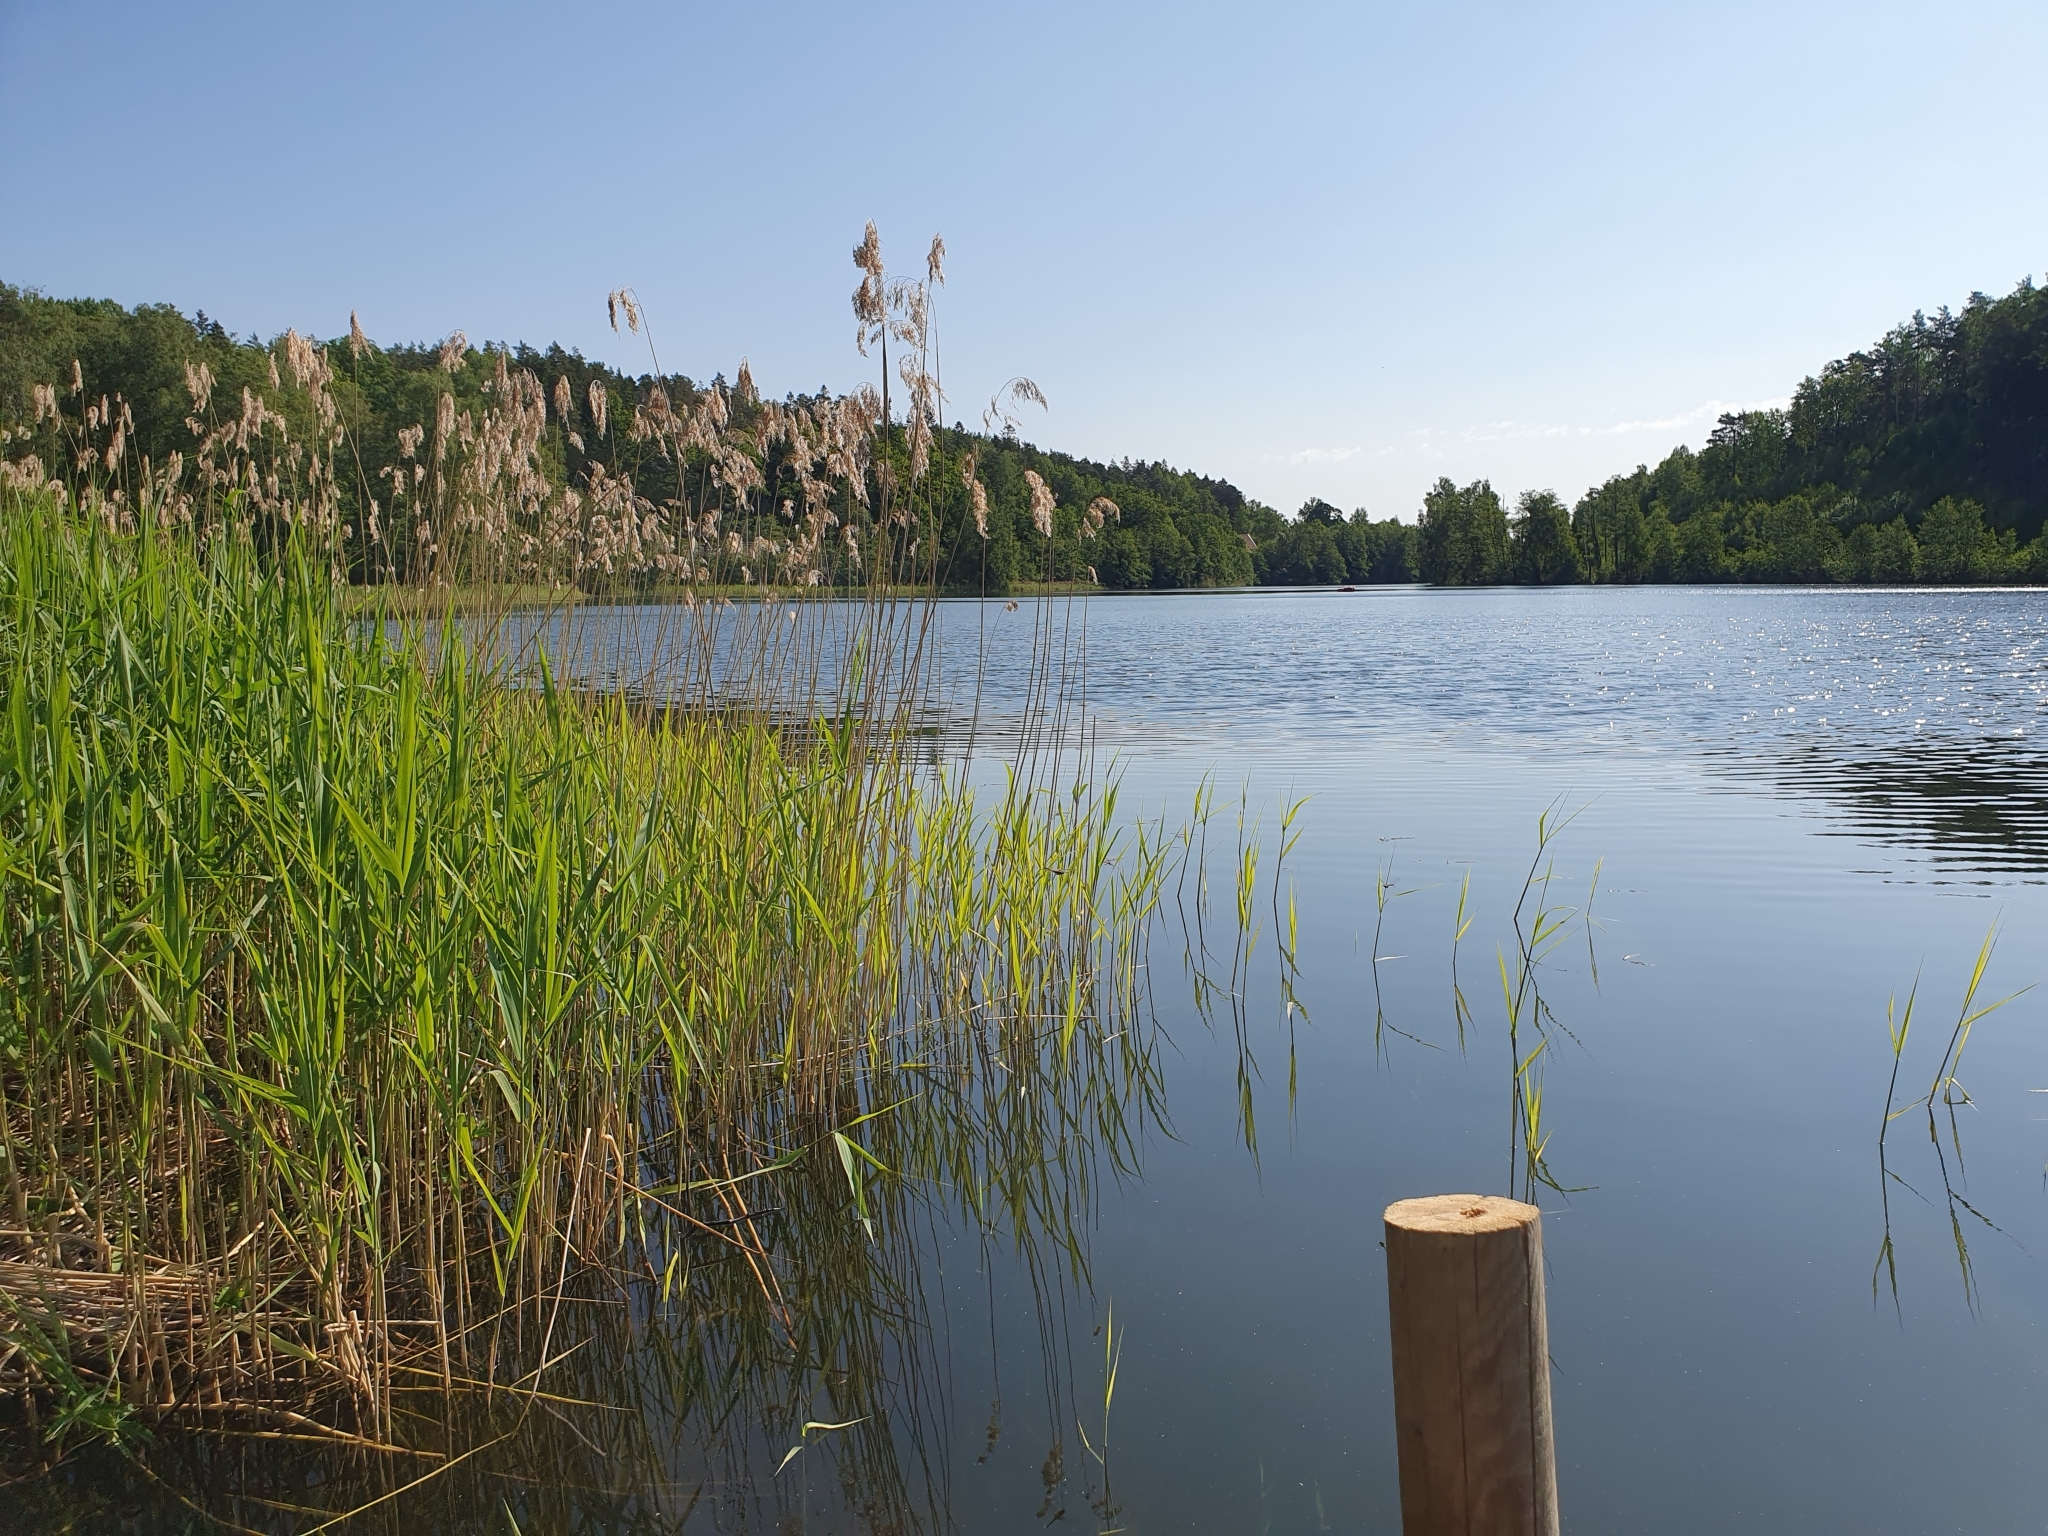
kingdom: Plantae
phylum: Tracheophyta
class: Liliopsida
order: Poales
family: Poaceae
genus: Phragmites
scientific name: Phragmites australis
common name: Common reed
